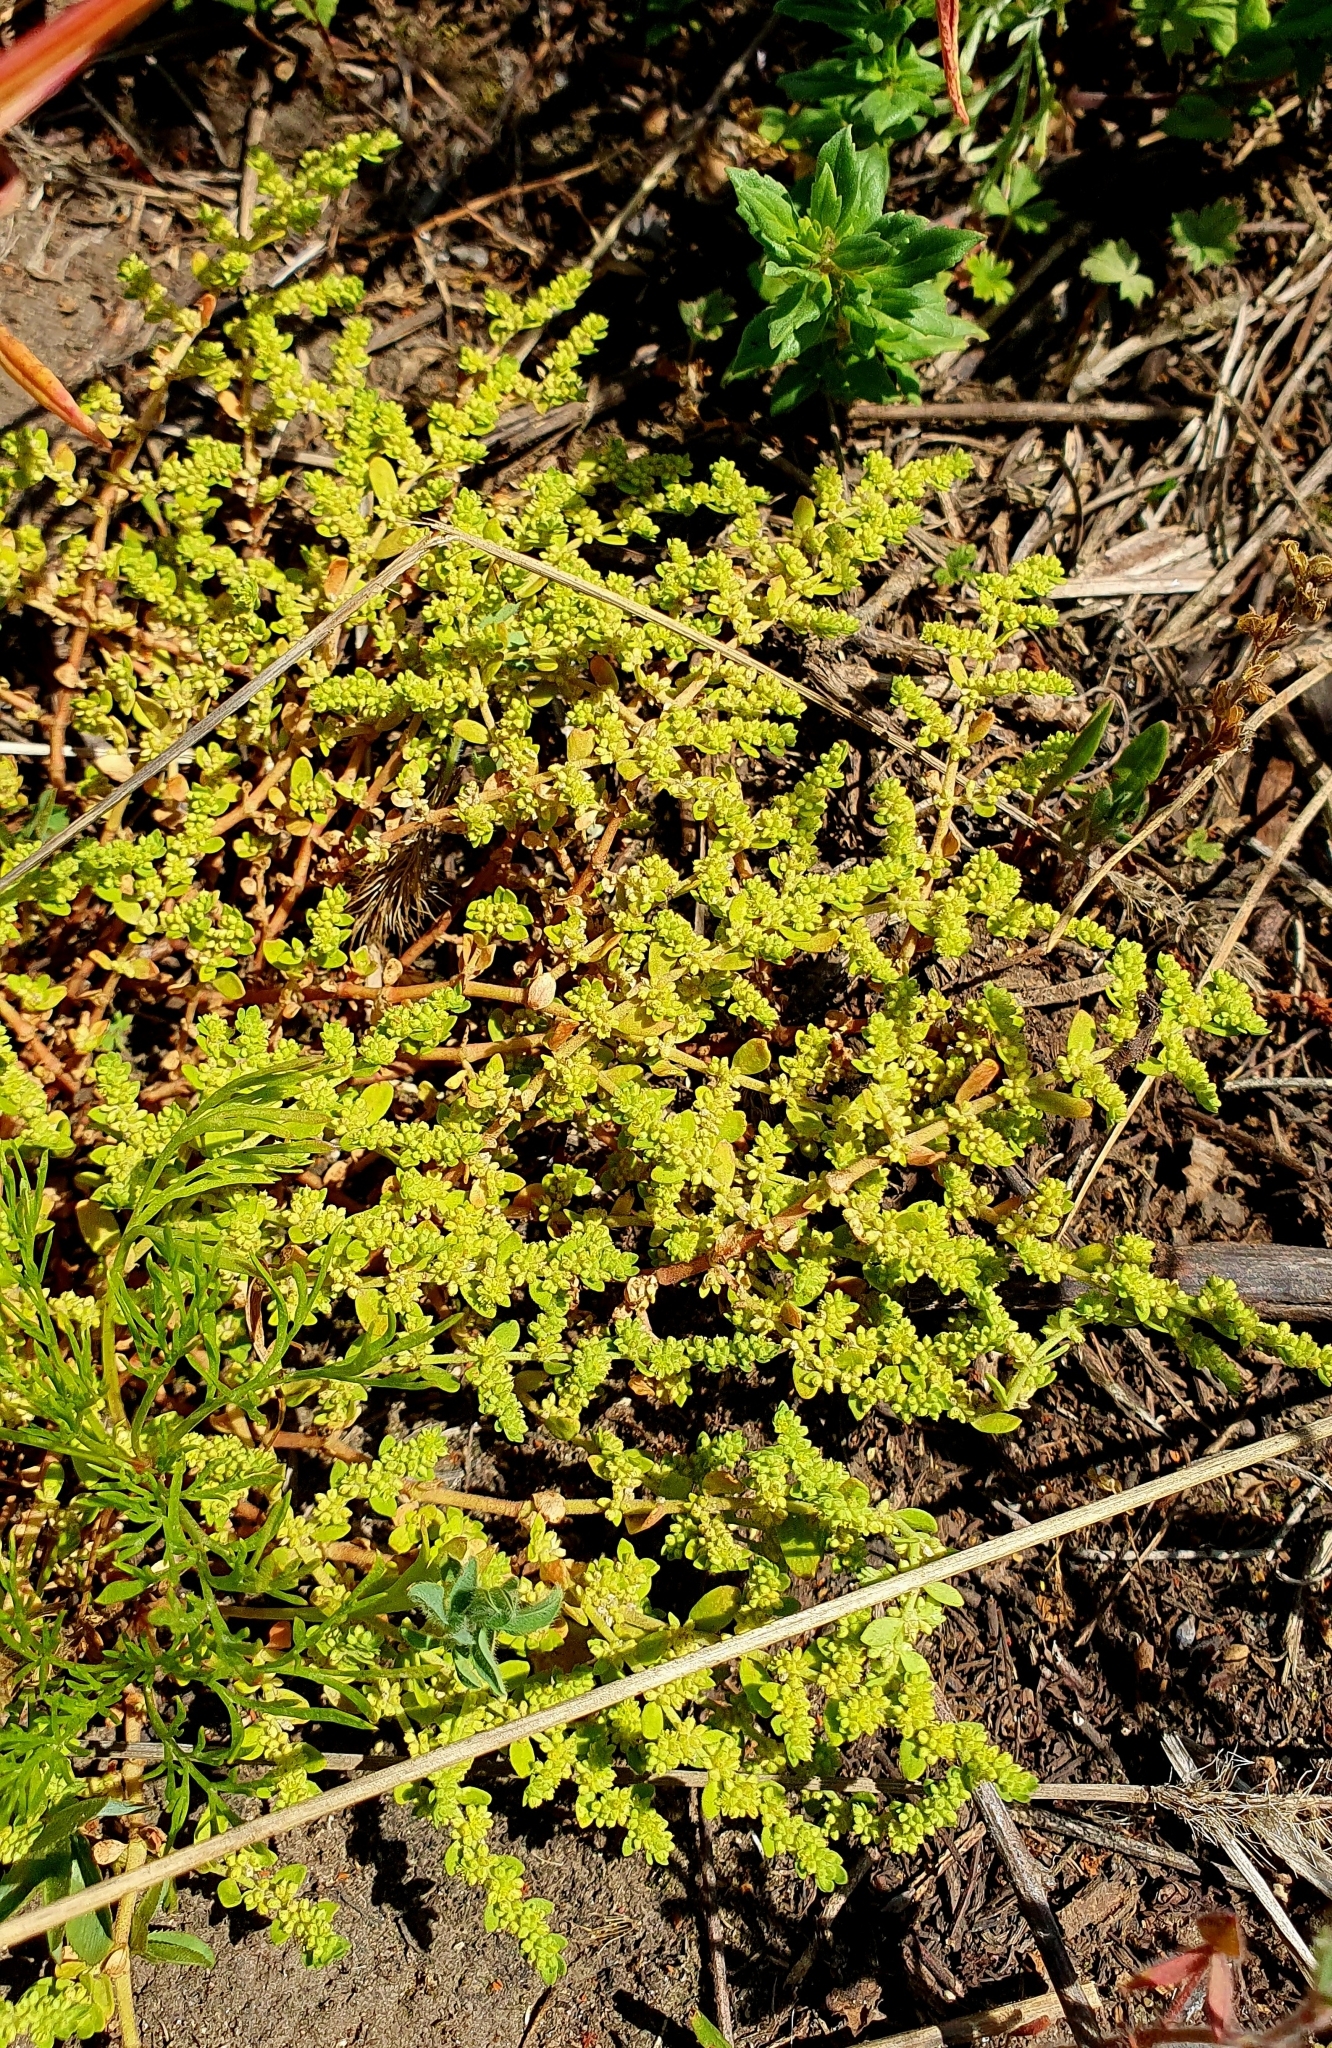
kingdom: Plantae
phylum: Tracheophyta
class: Magnoliopsida
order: Caryophyllales
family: Caryophyllaceae
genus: Herniaria
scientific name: Herniaria glabra
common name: Smooth rupturewort
